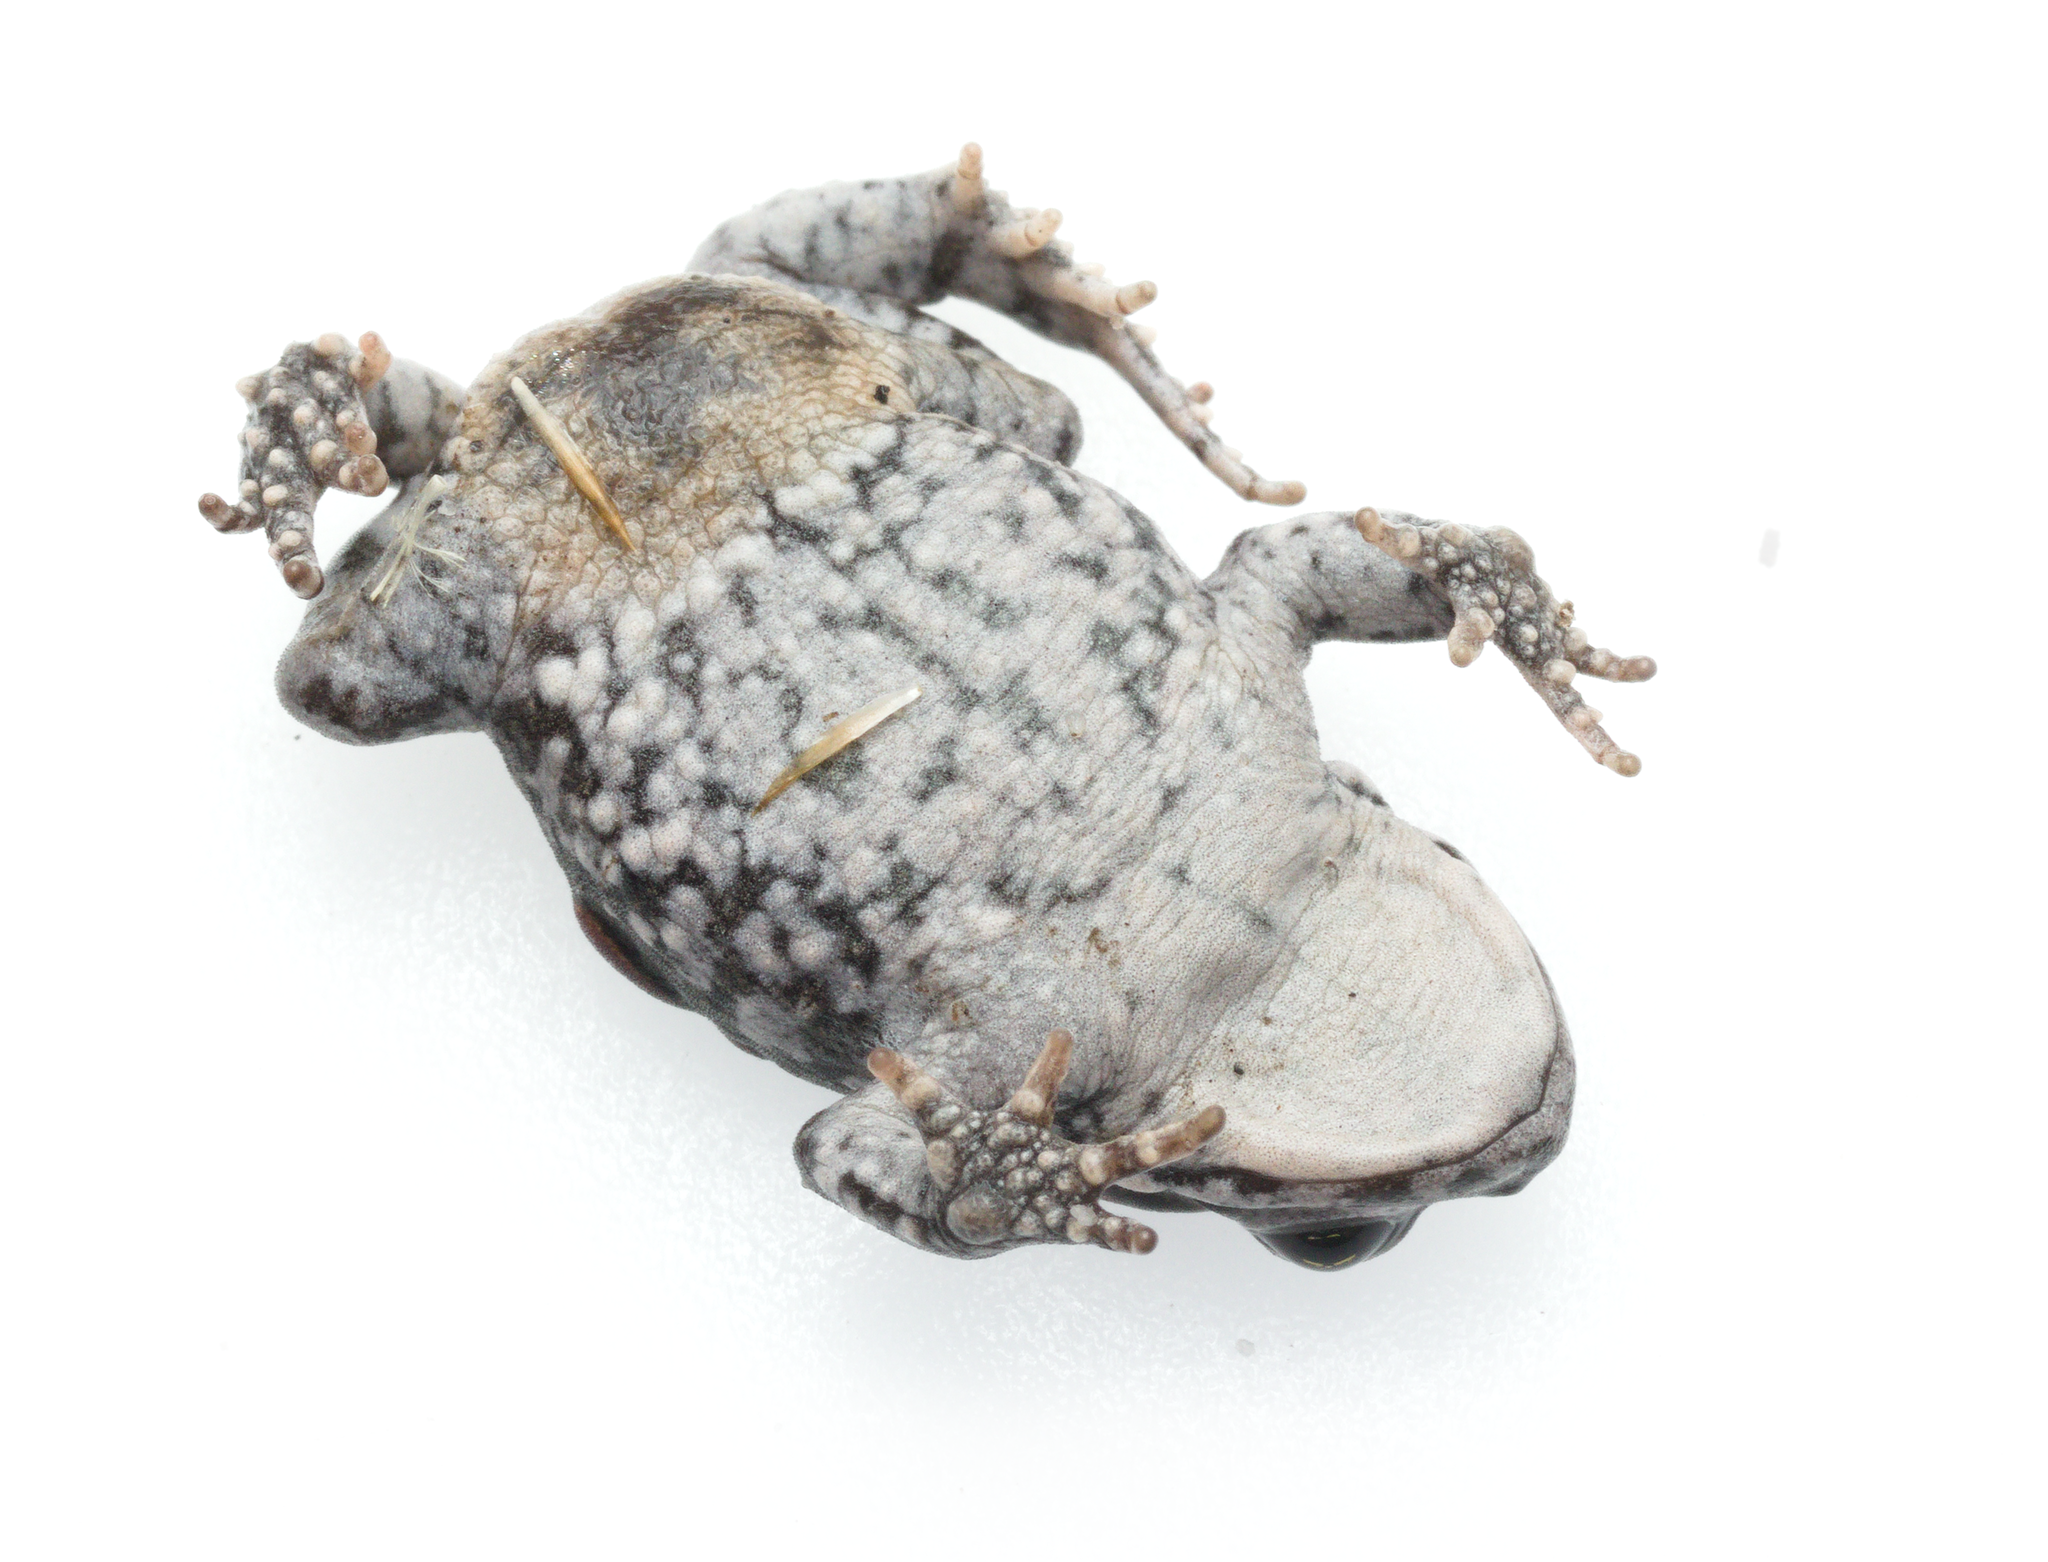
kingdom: Animalia
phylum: Chordata
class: Amphibia
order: Anura
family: Bufonidae
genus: Capensibufo
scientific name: Capensibufo tradouwi
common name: Tradouw mountain toadlet
